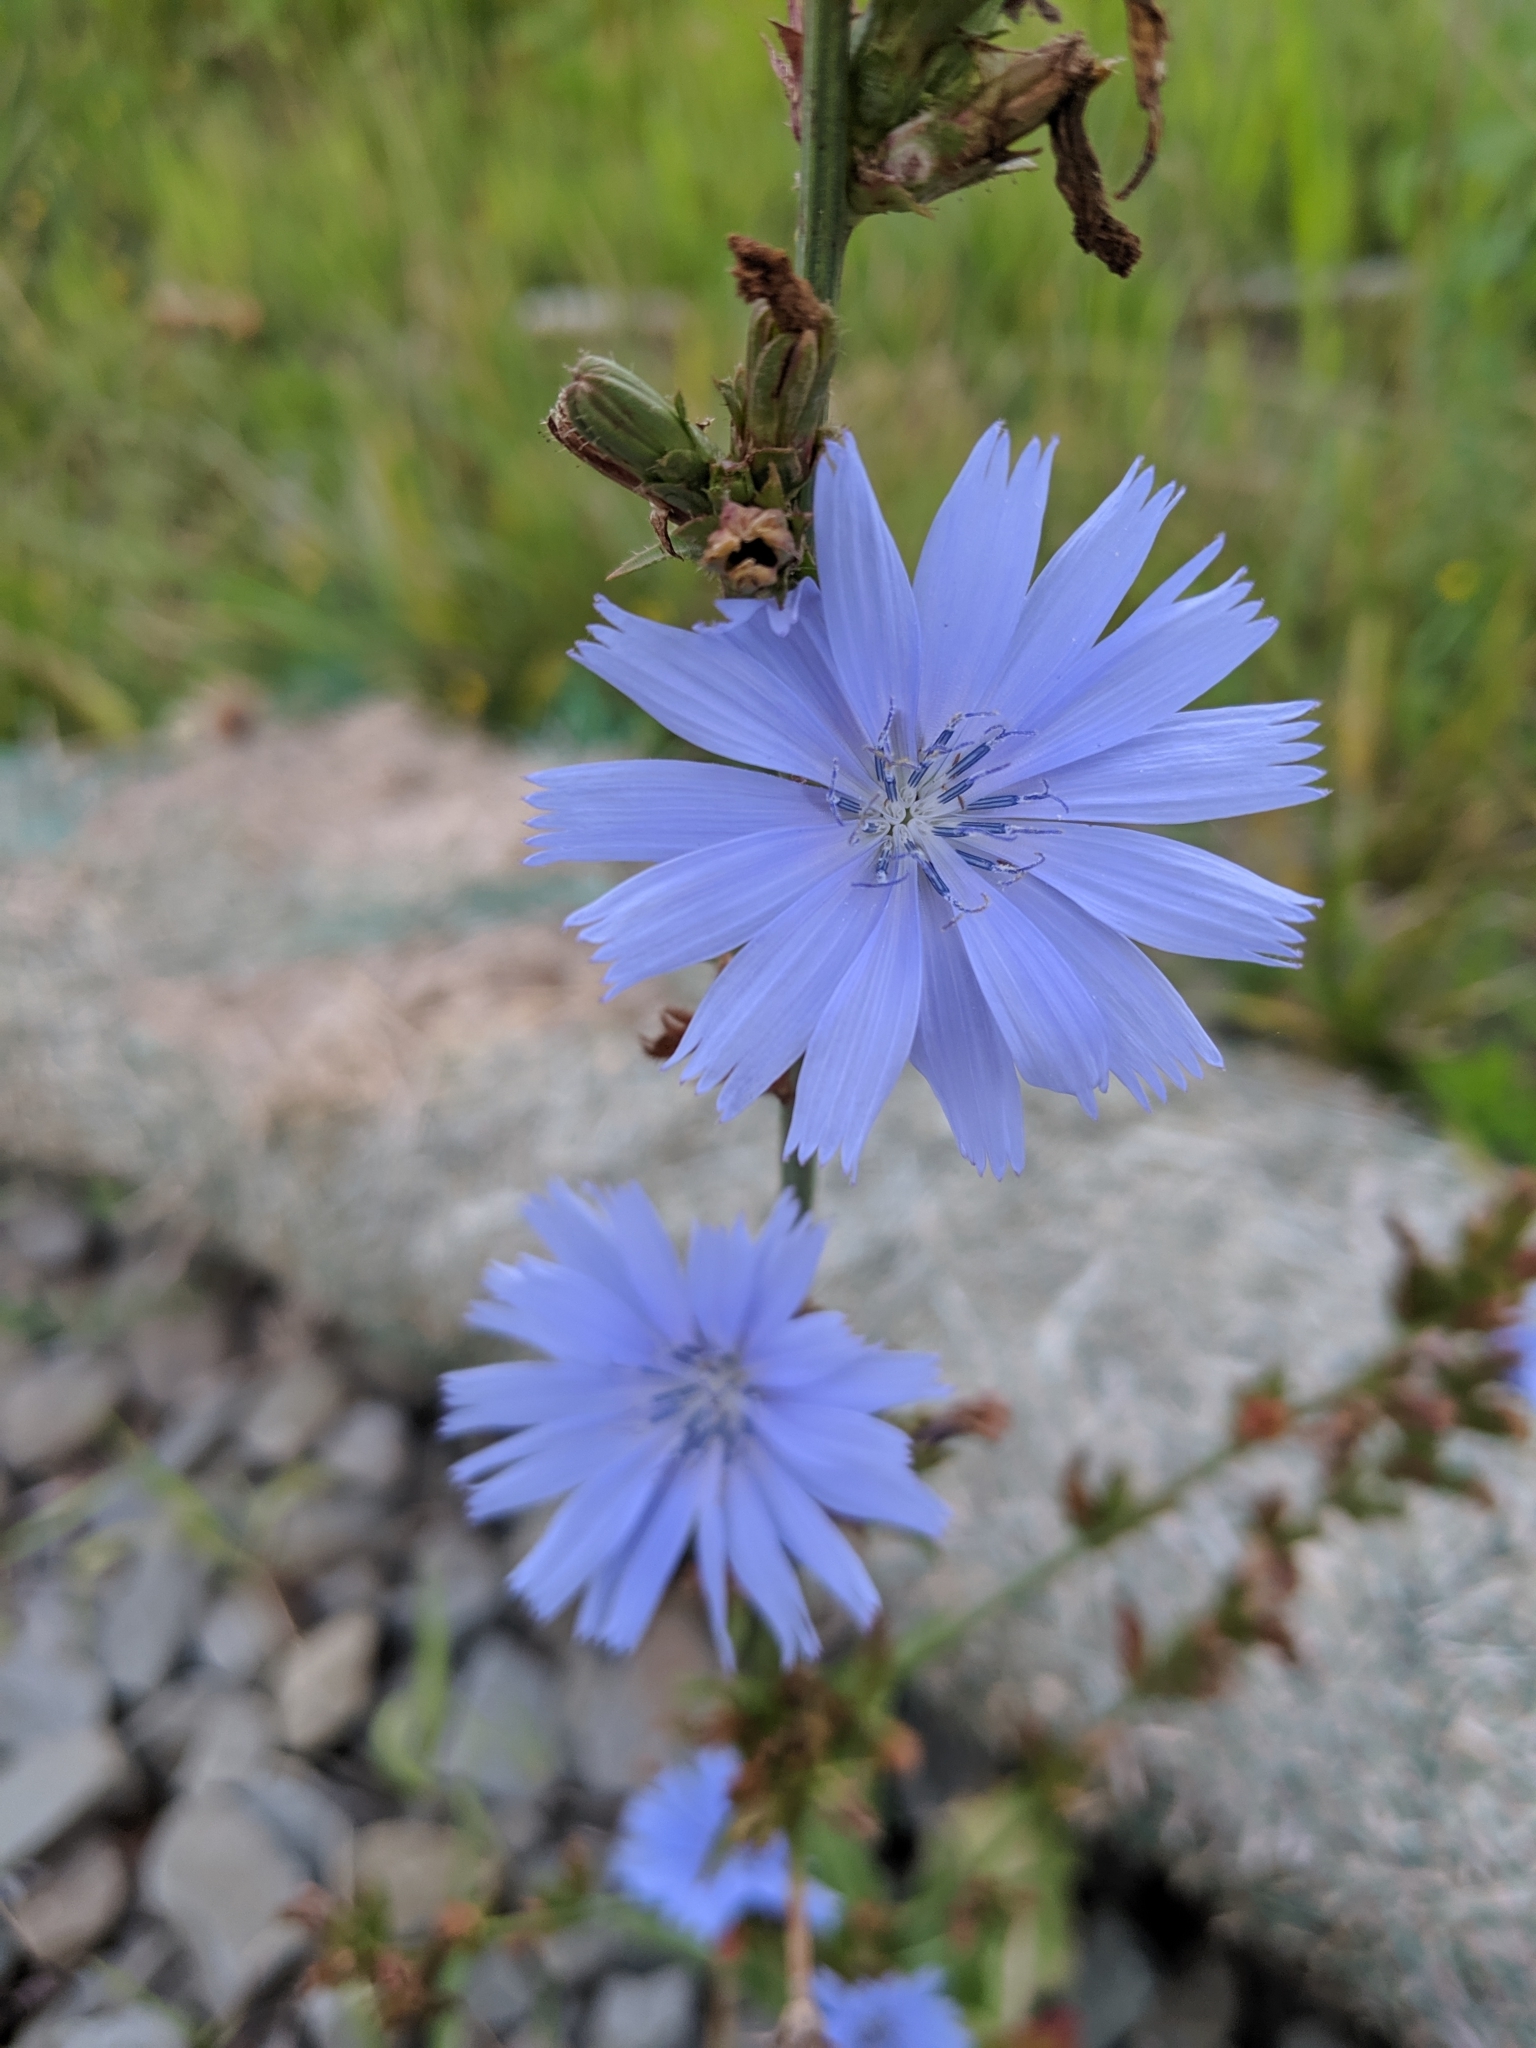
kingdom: Plantae
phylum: Tracheophyta
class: Magnoliopsida
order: Asterales
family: Asteraceae
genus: Cichorium
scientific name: Cichorium intybus
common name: Chicory
